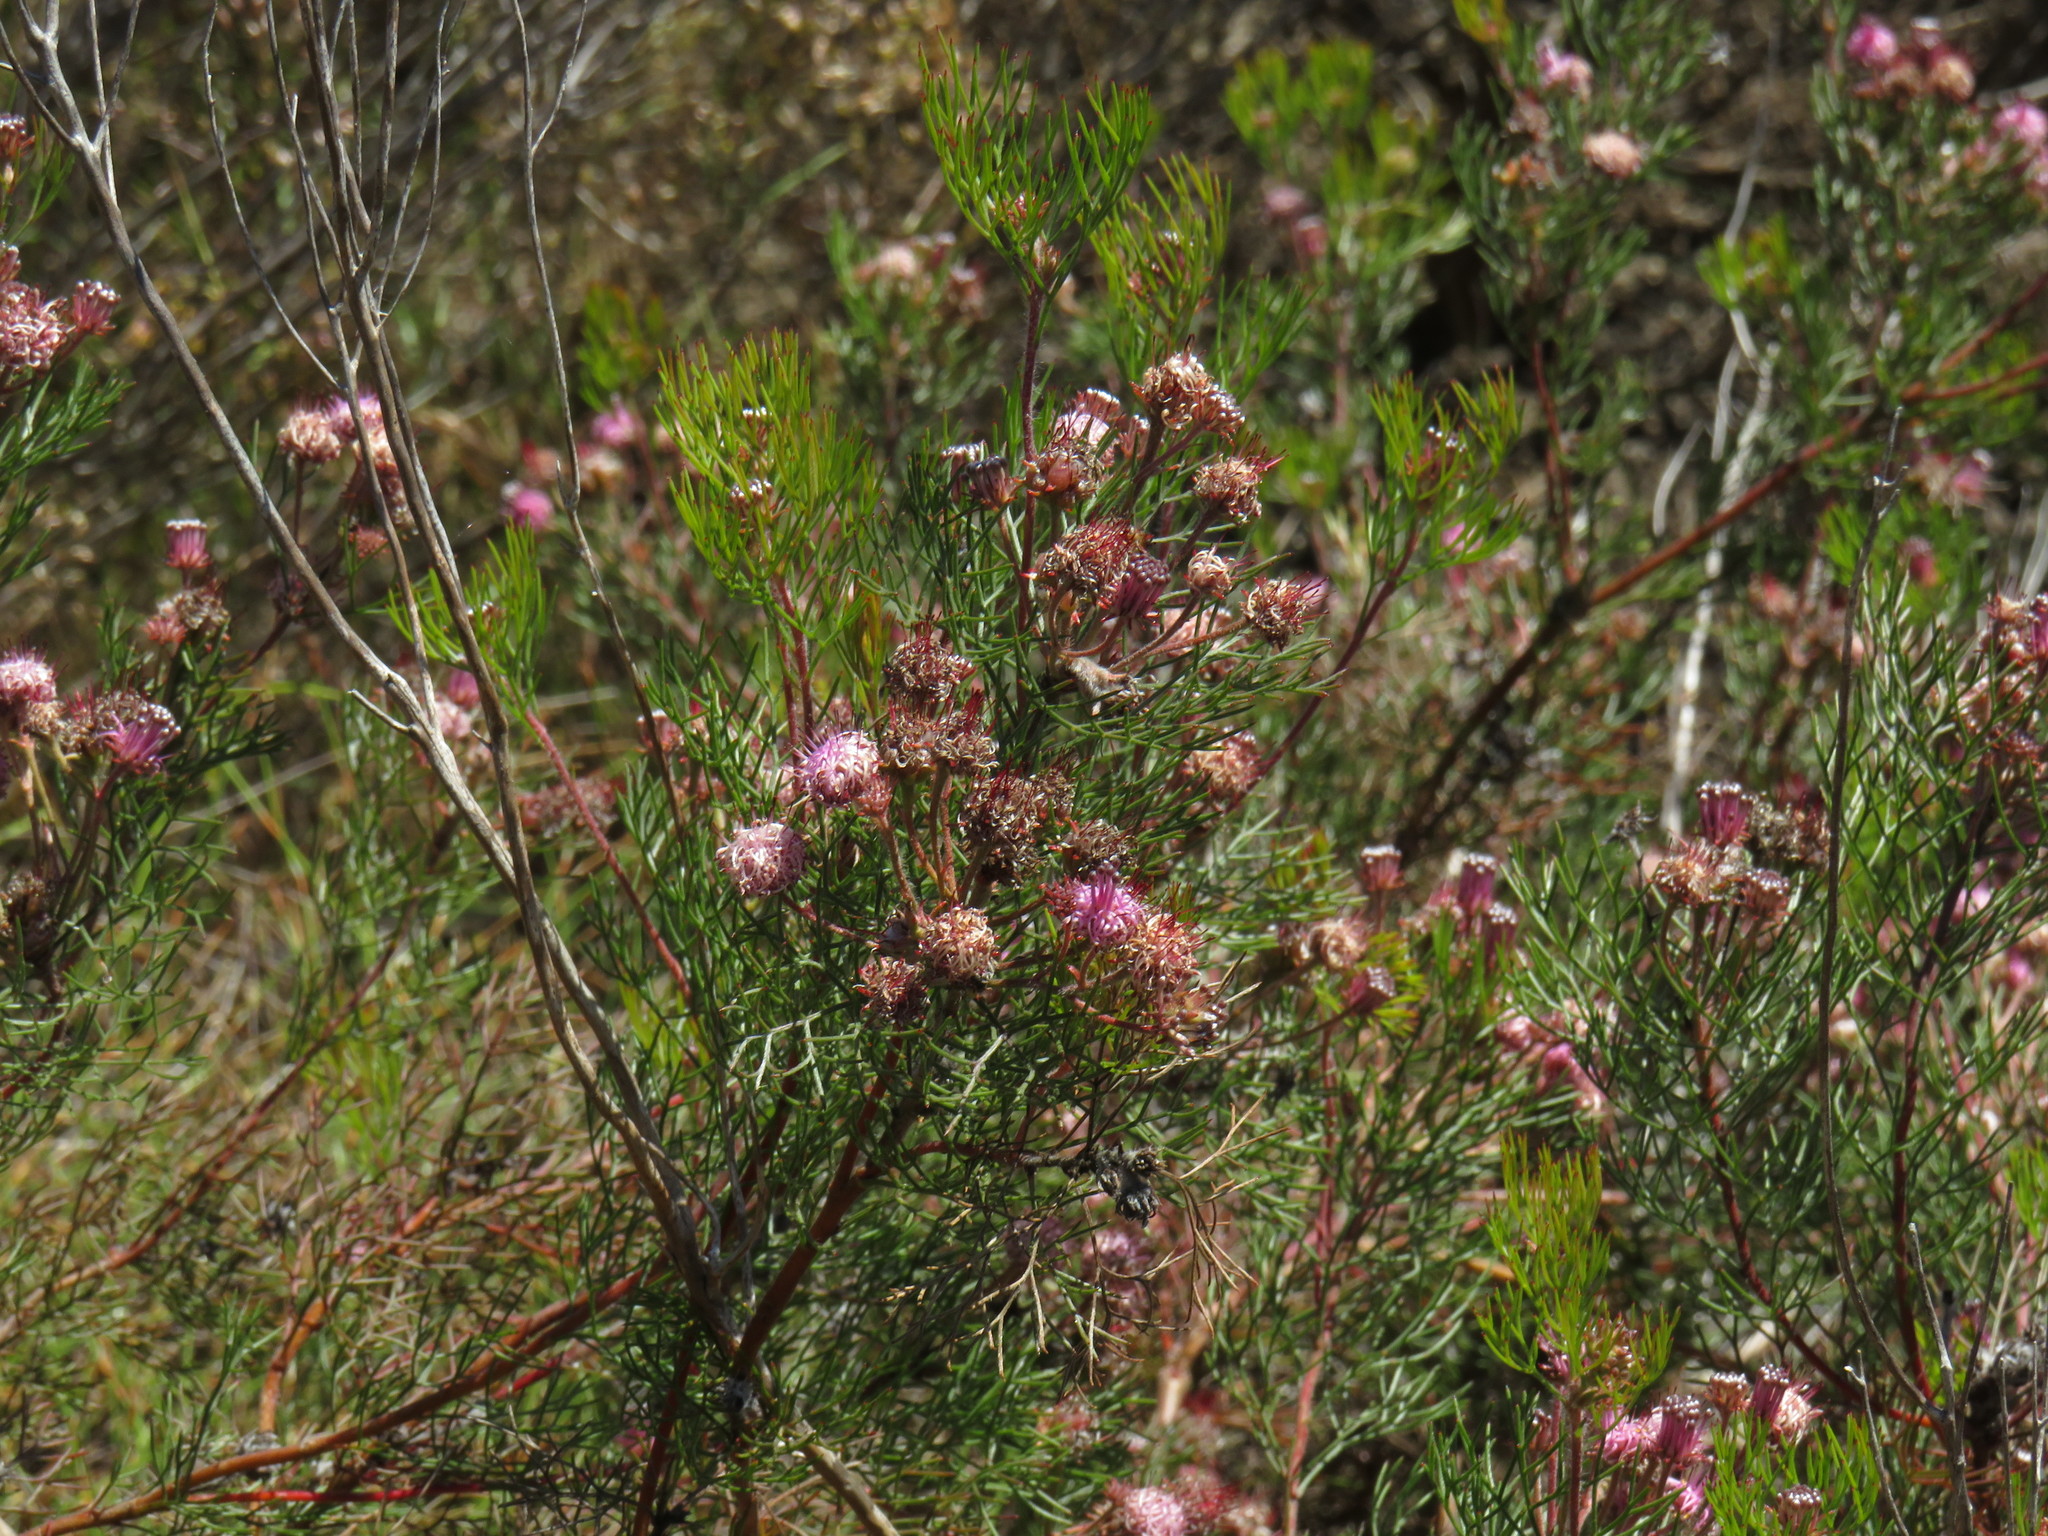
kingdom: Plantae
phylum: Tracheophyta
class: Magnoliopsida
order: Proteales
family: Proteaceae
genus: Serruria
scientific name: Serruria fasciflora
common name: Common pin spiderhead
